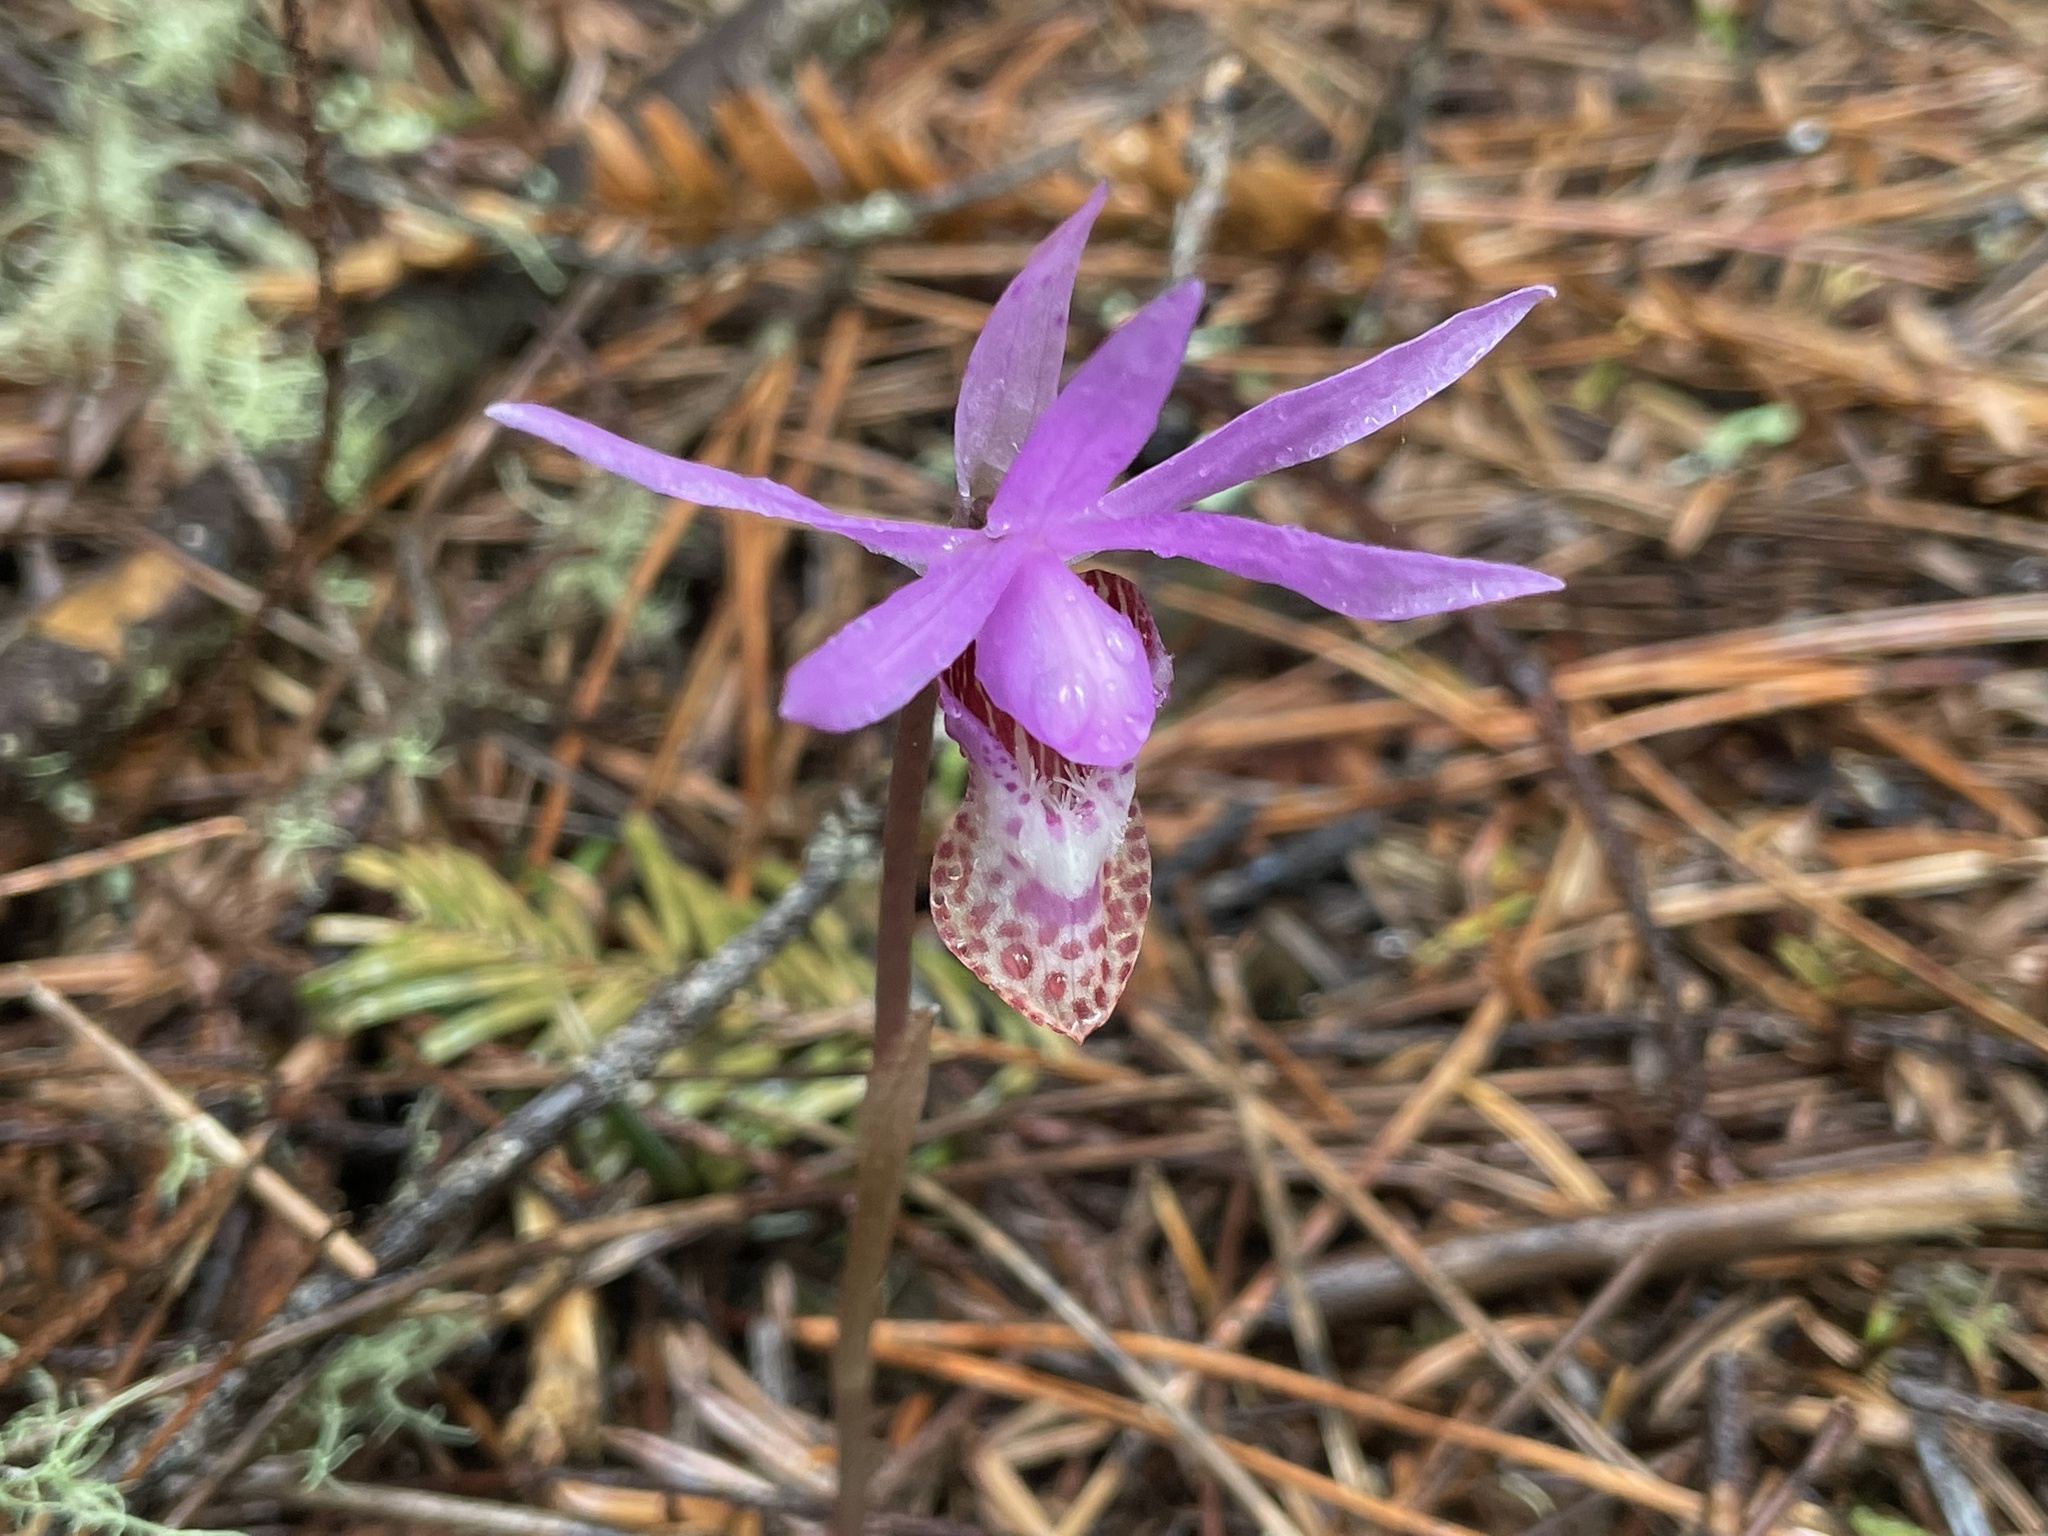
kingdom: Plantae
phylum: Tracheophyta
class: Liliopsida
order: Asparagales
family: Orchidaceae
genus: Calypso
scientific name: Calypso bulbosa
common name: Calypso
